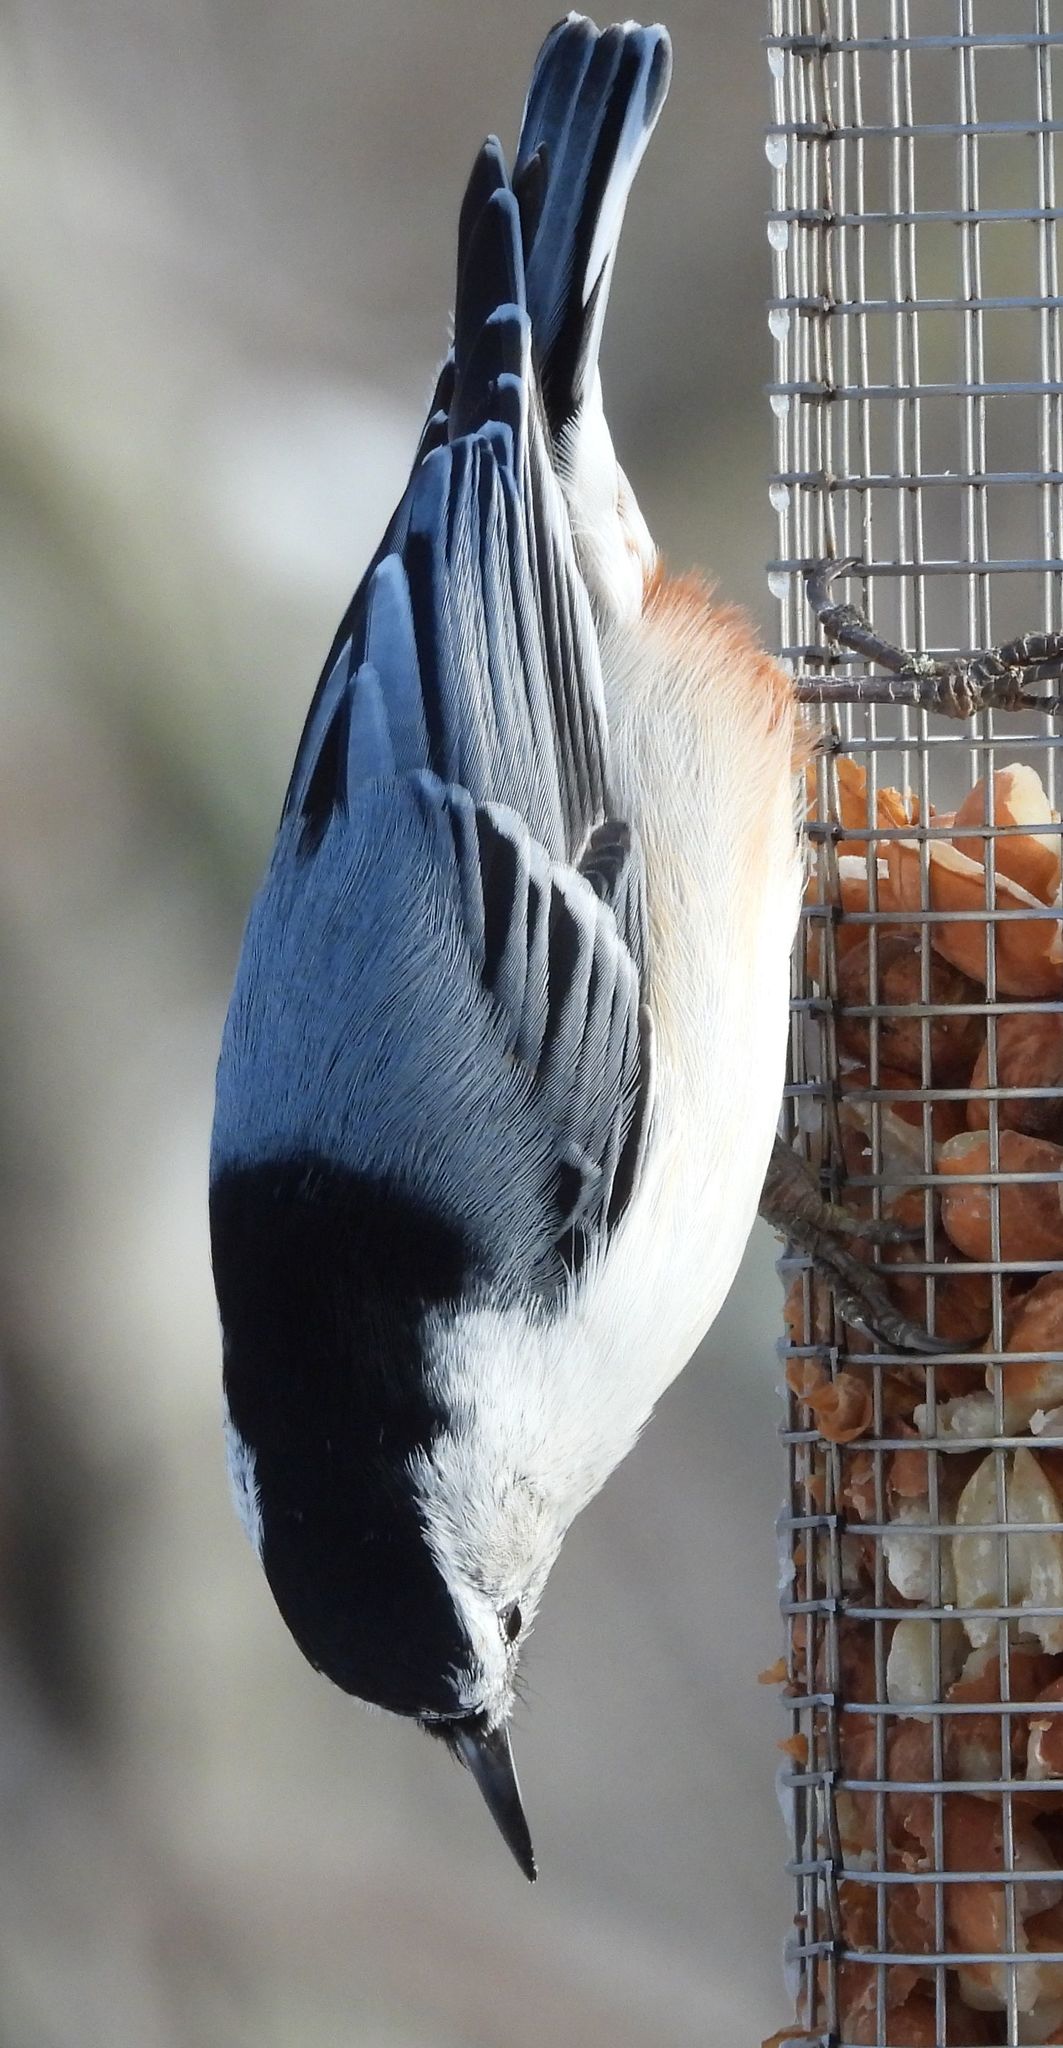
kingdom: Animalia
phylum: Chordata
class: Aves
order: Passeriformes
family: Sittidae
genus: Sitta
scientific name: Sitta carolinensis
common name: White-breasted nuthatch
